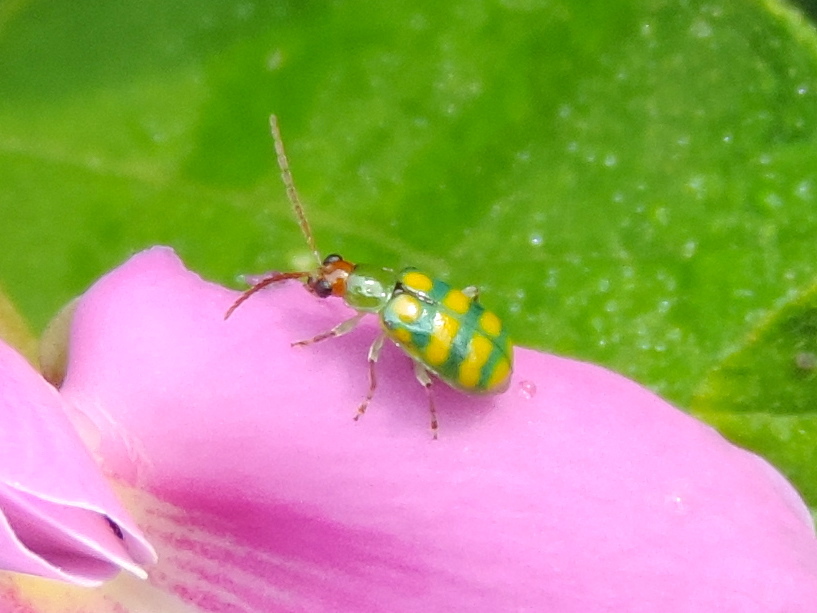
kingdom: Animalia
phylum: Arthropoda
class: Insecta
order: Coleoptera
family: Chrysomelidae
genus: Diabrotica
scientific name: Diabrotica balteata
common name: Leaf beetle
